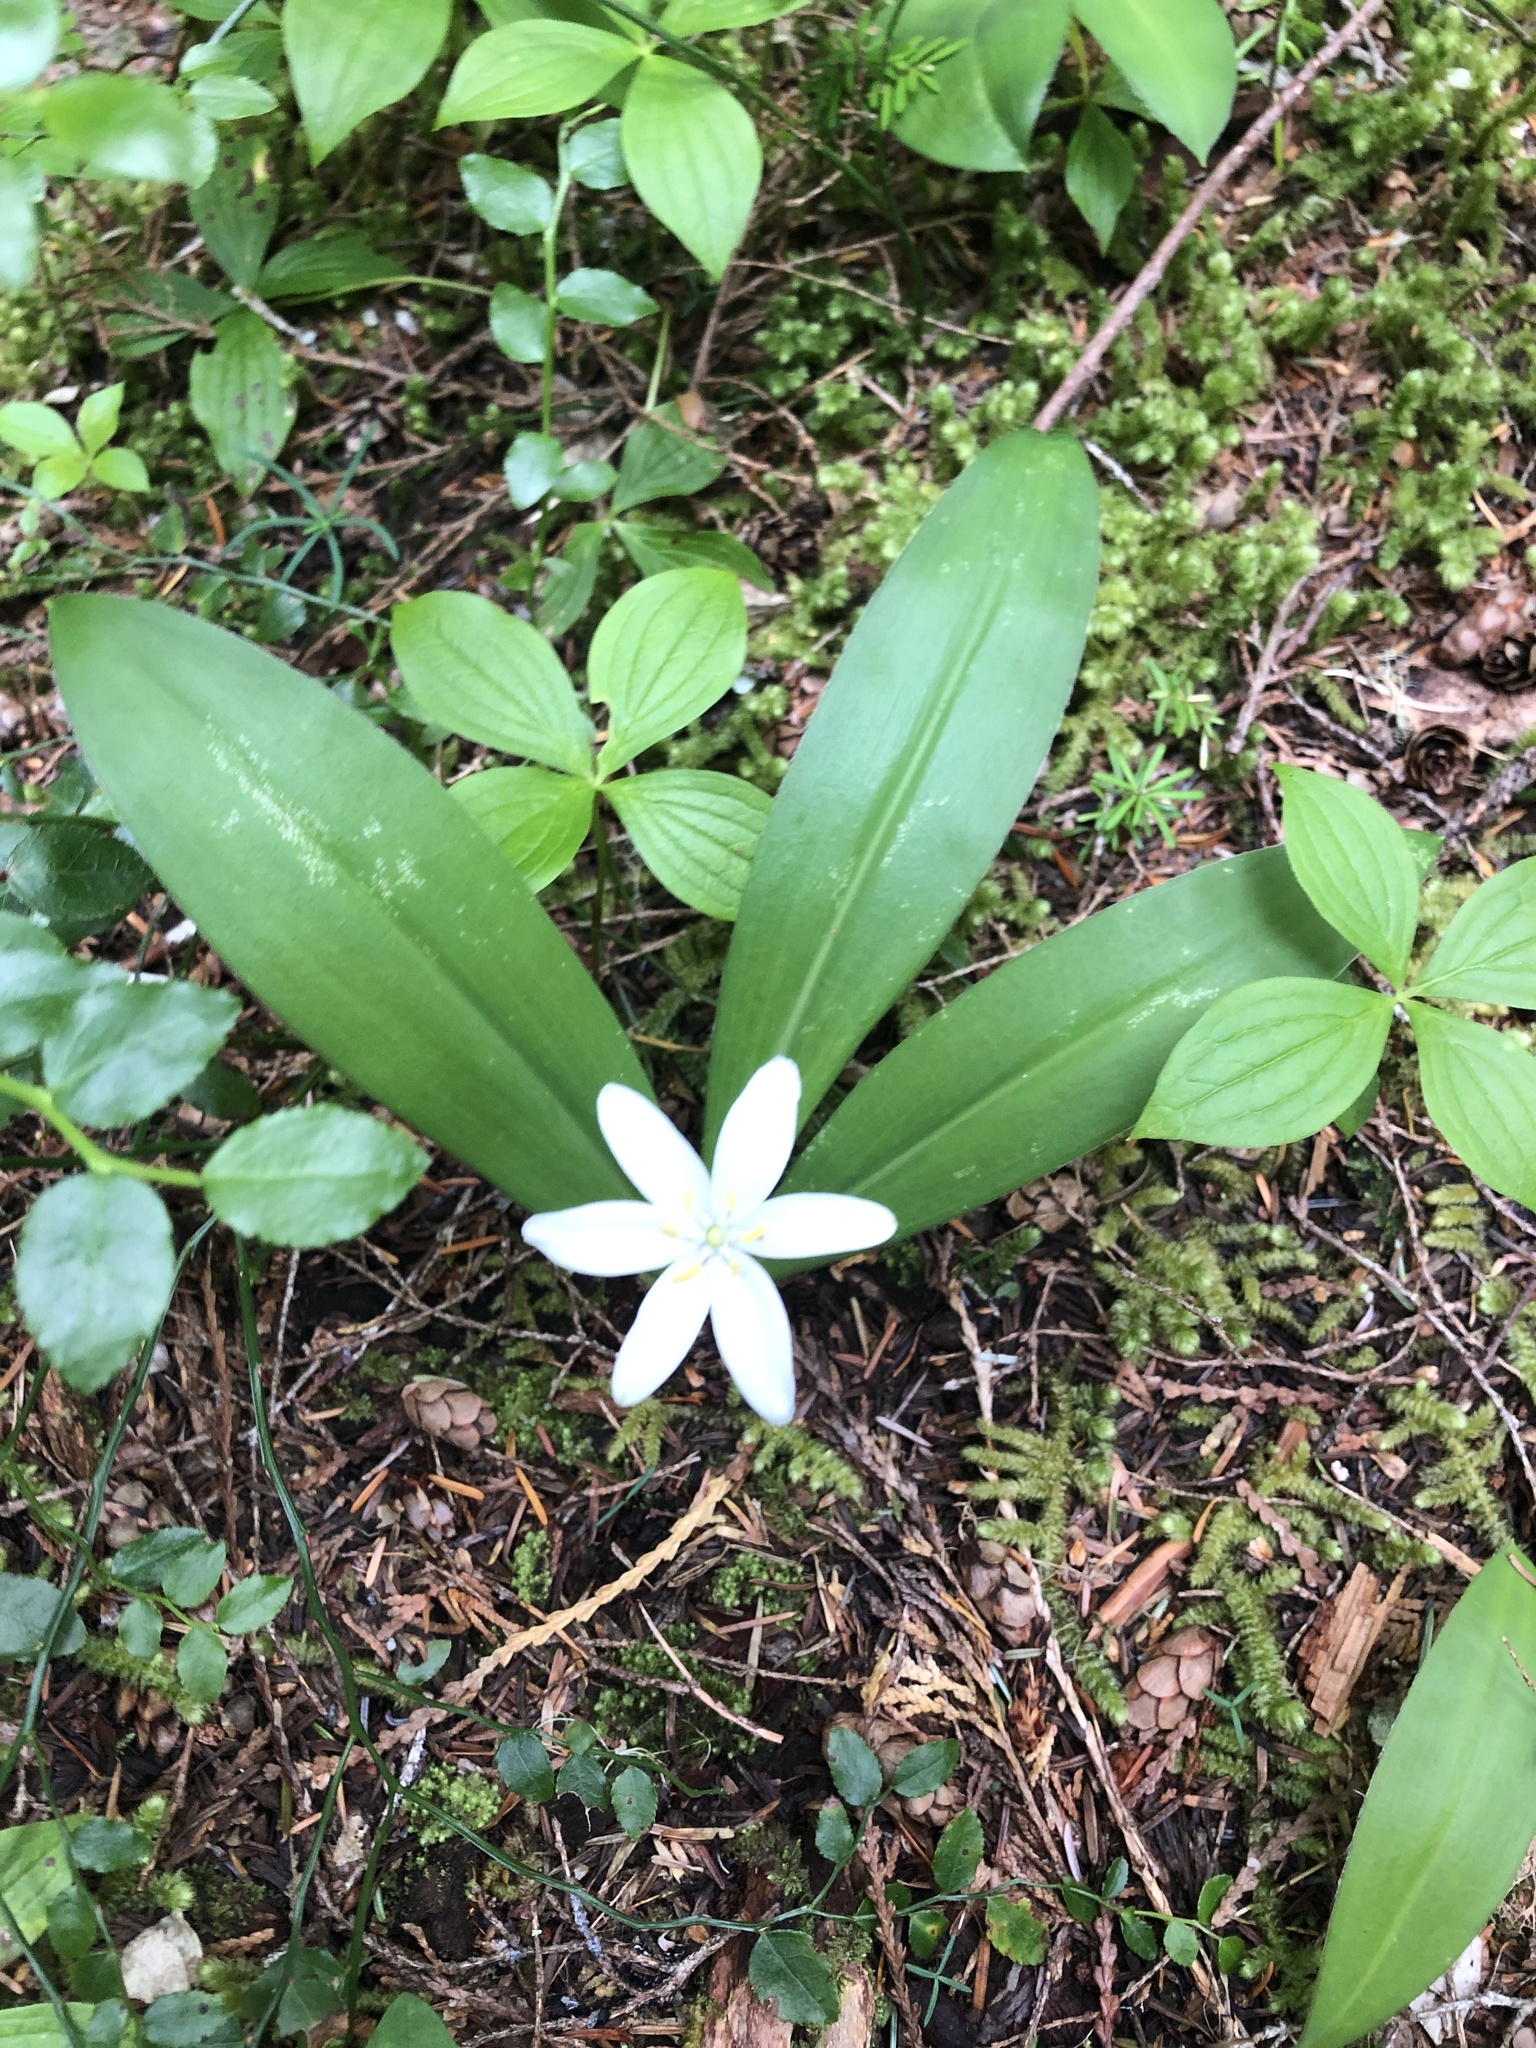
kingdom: Plantae
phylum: Tracheophyta
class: Liliopsida
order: Liliales
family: Liliaceae
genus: Clintonia
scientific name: Clintonia uniflora
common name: Queen's cup
